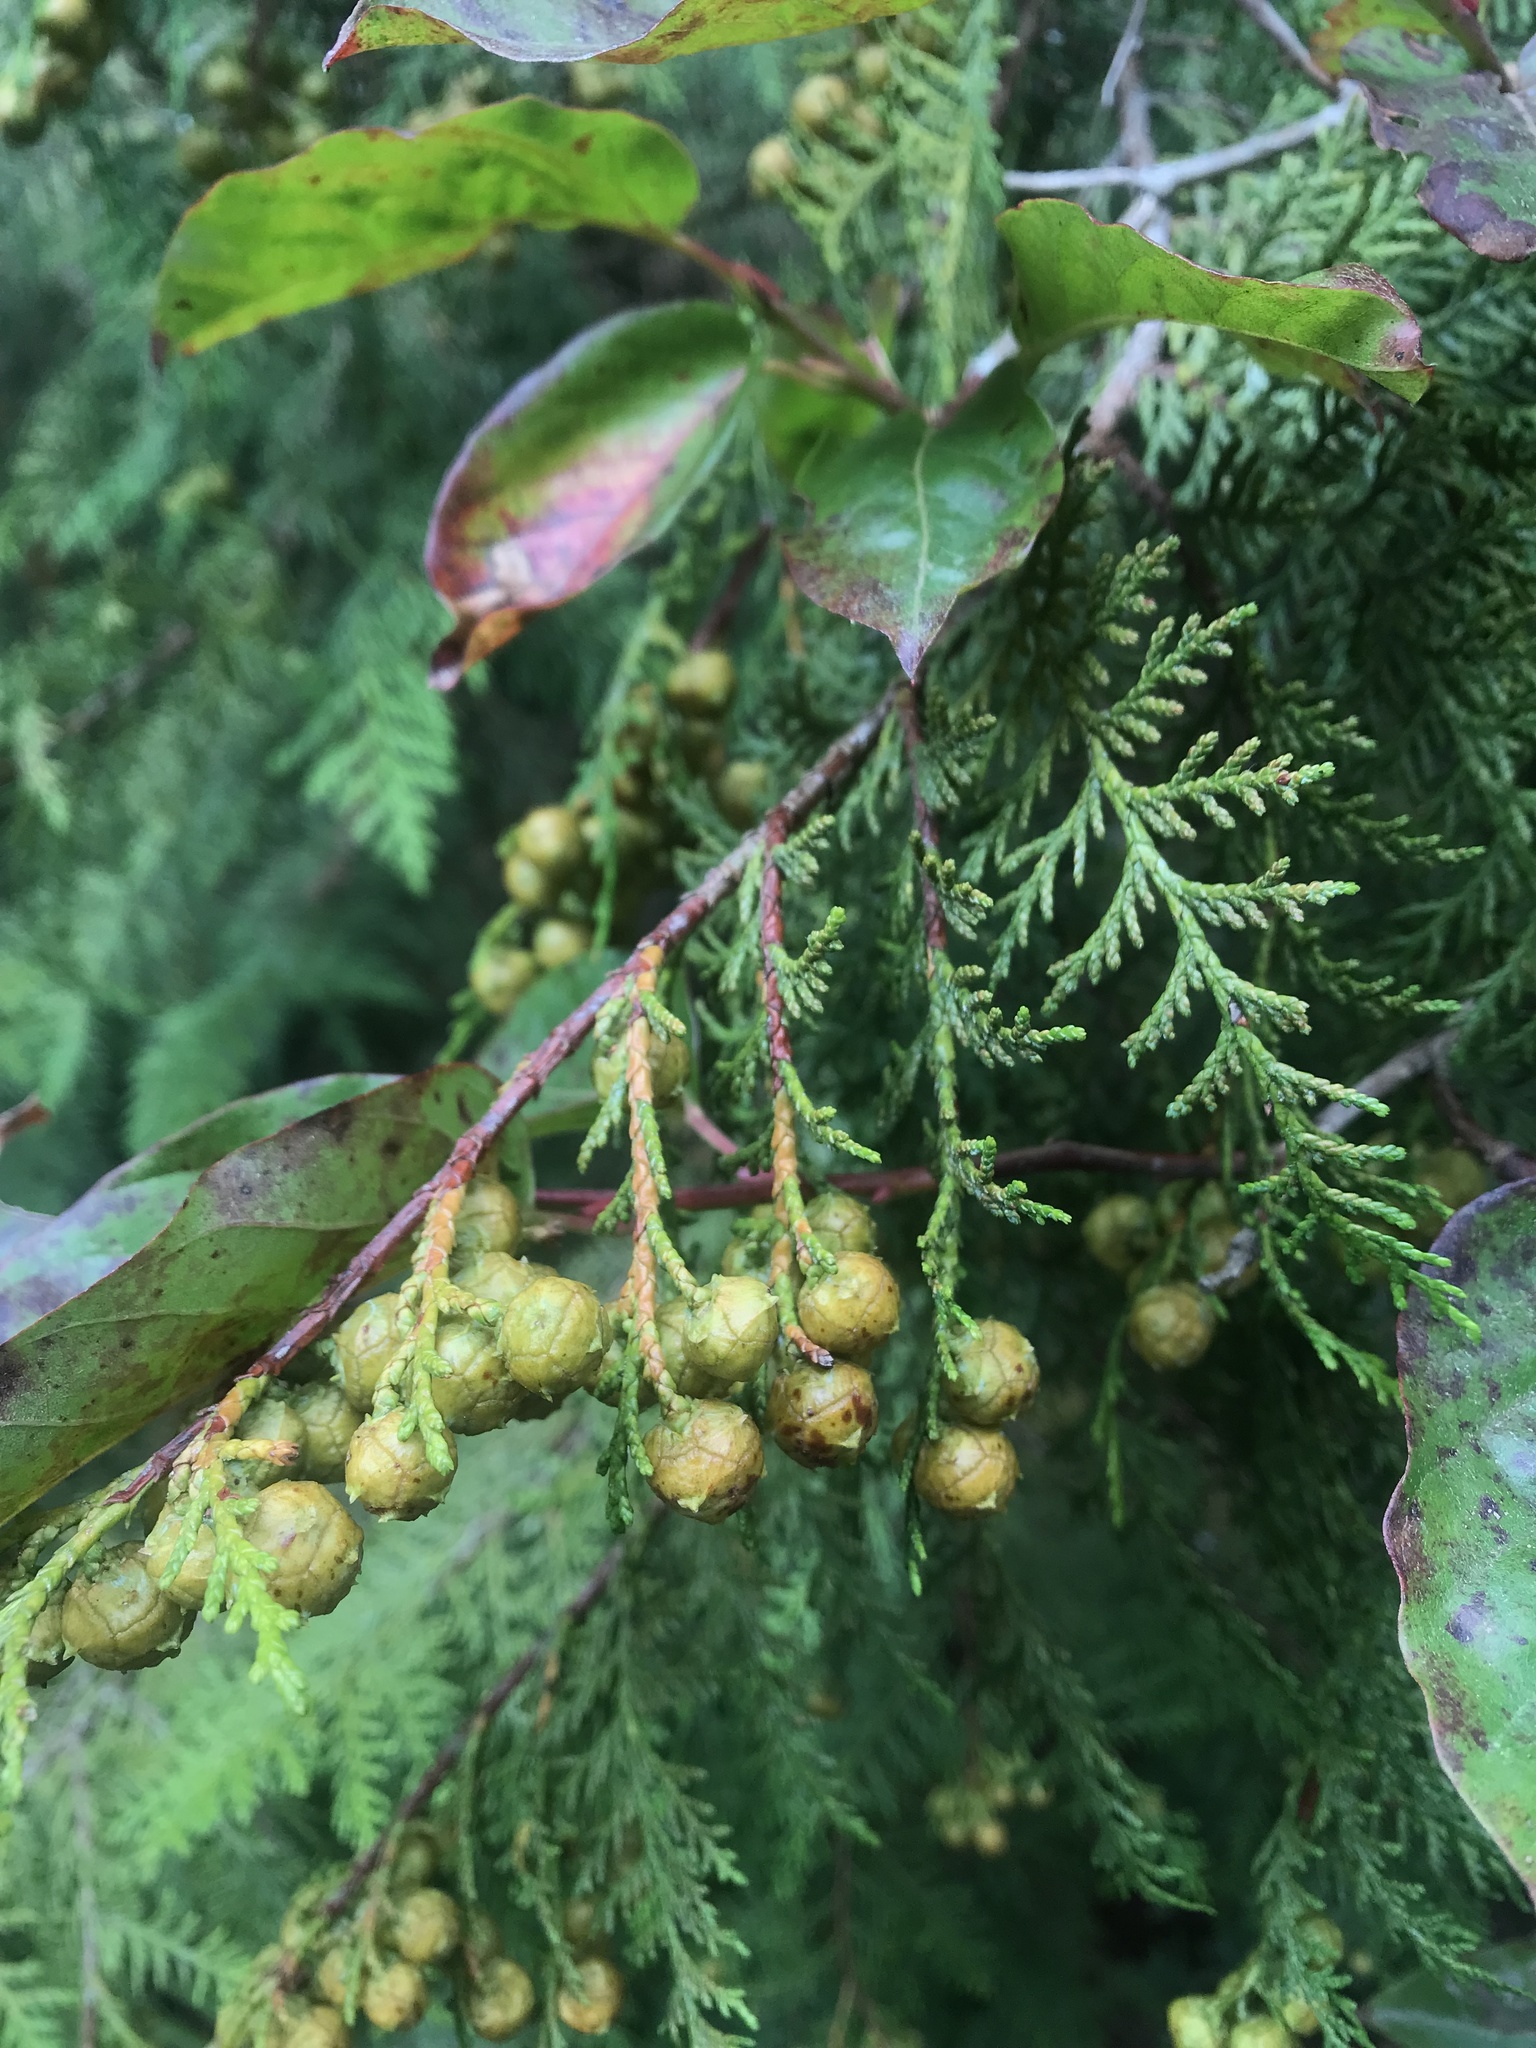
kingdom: Plantae
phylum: Tracheophyta
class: Pinopsida
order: Pinales
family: Cupressaceae
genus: Chamaecyparis
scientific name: Chamaecyparis formosensis
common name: Formosan cypress
